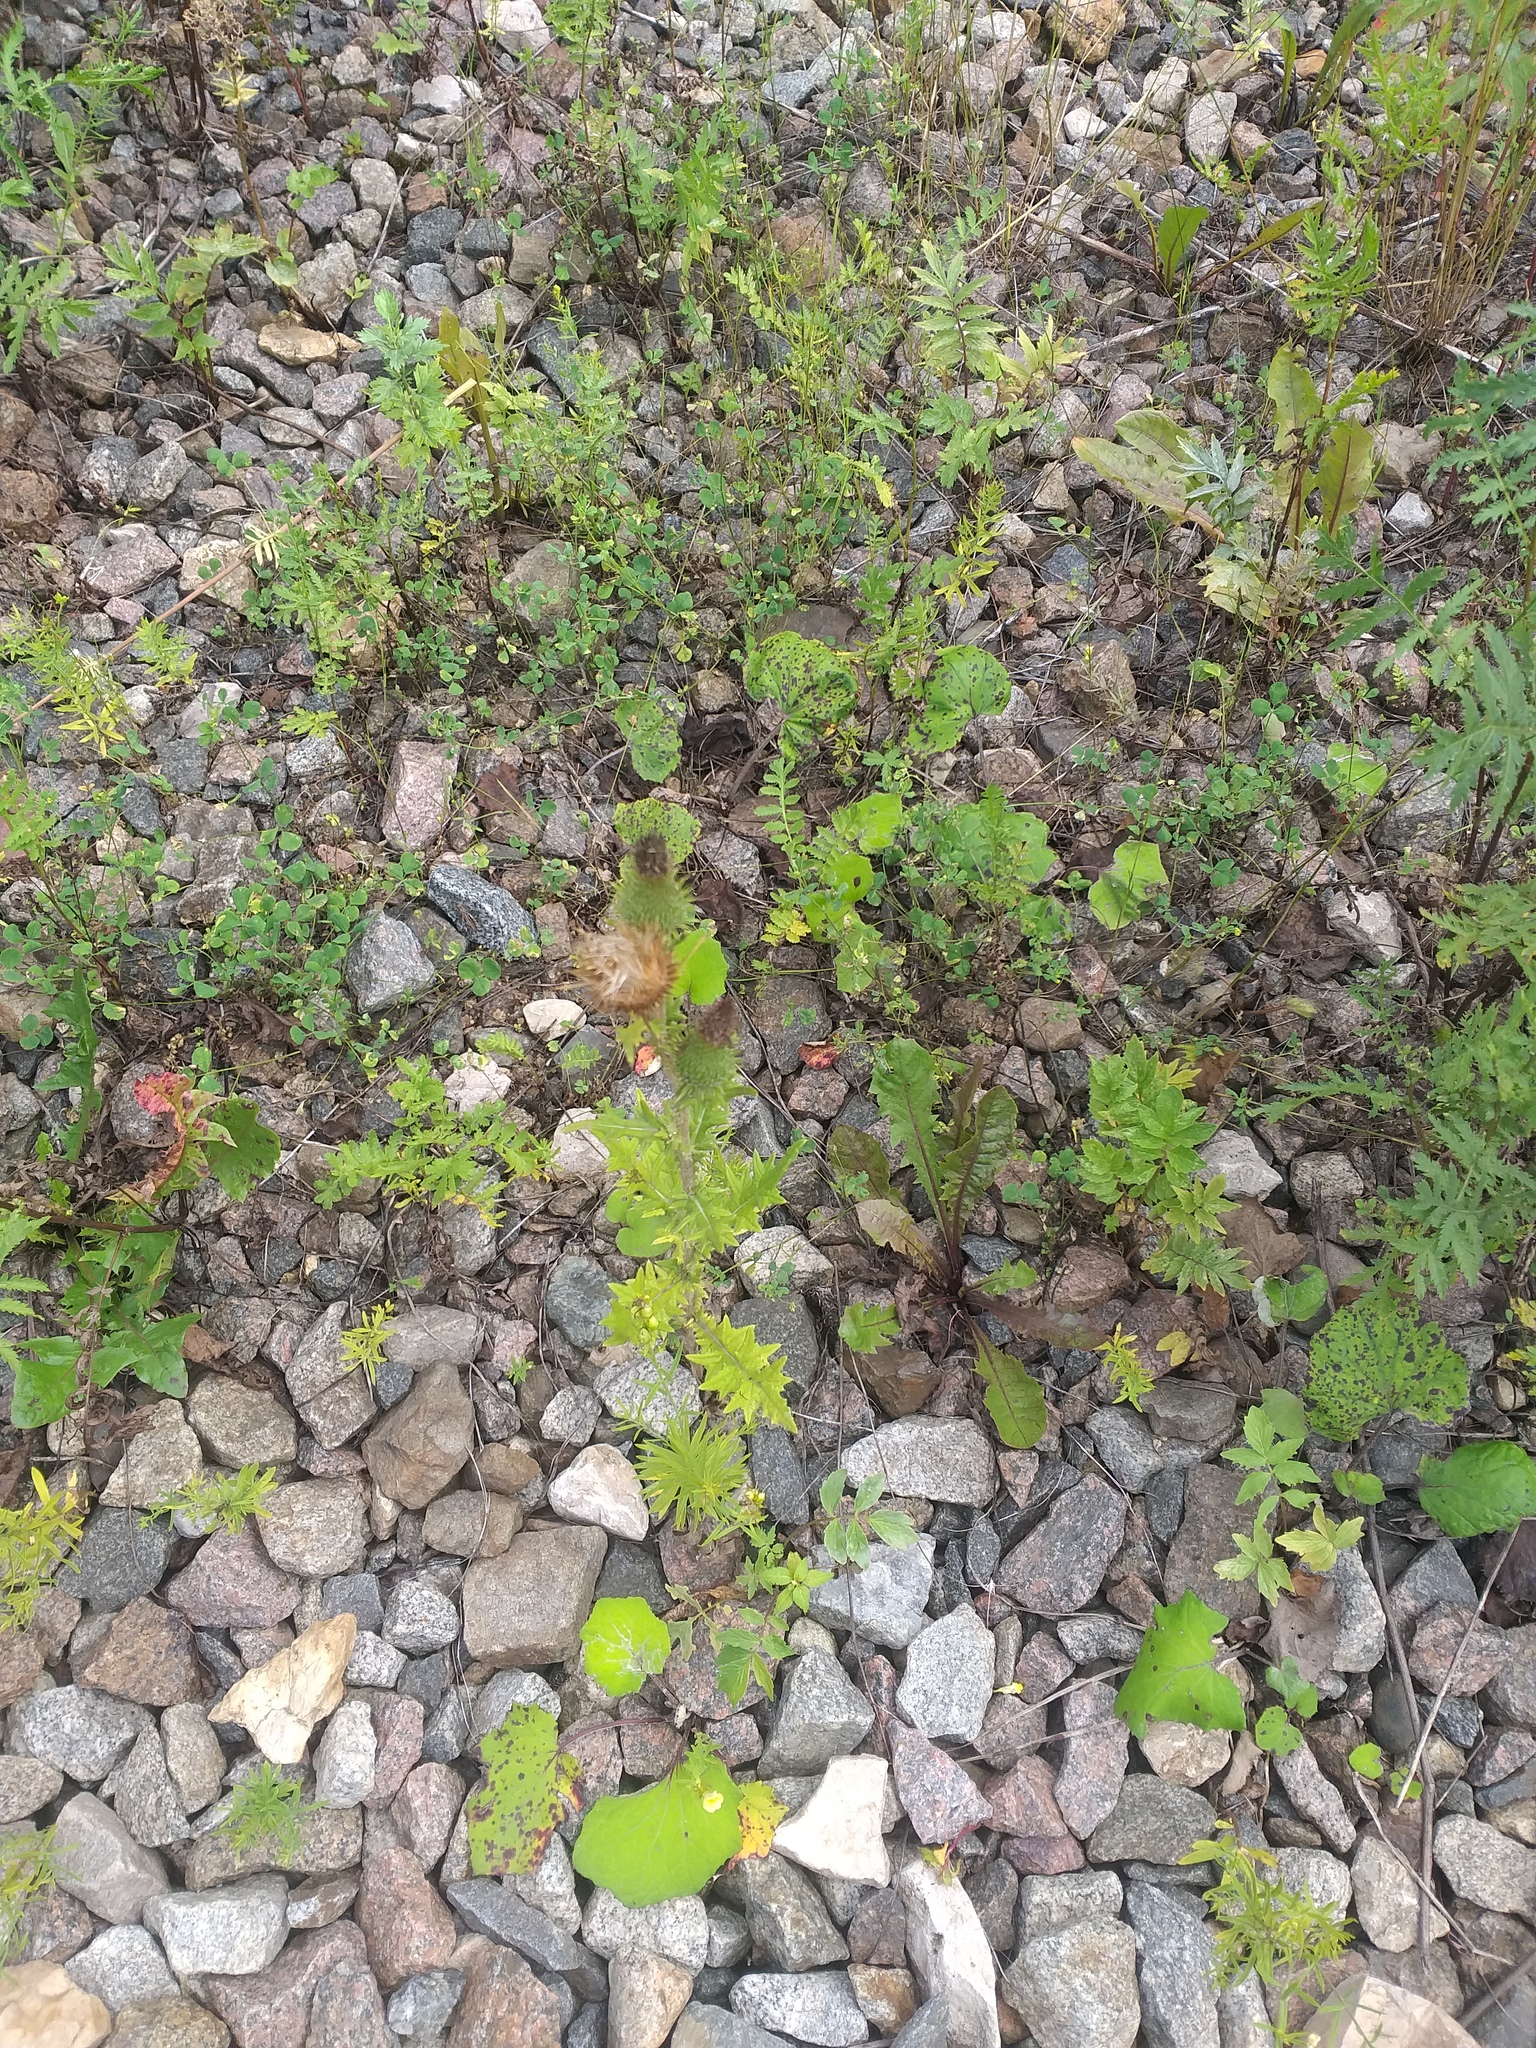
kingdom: Plantae
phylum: Tracheophyta
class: Magnoliopsida
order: Asterales
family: Asteraceae
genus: Cirsium
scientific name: Cirsium vulgare
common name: Bull thistle
